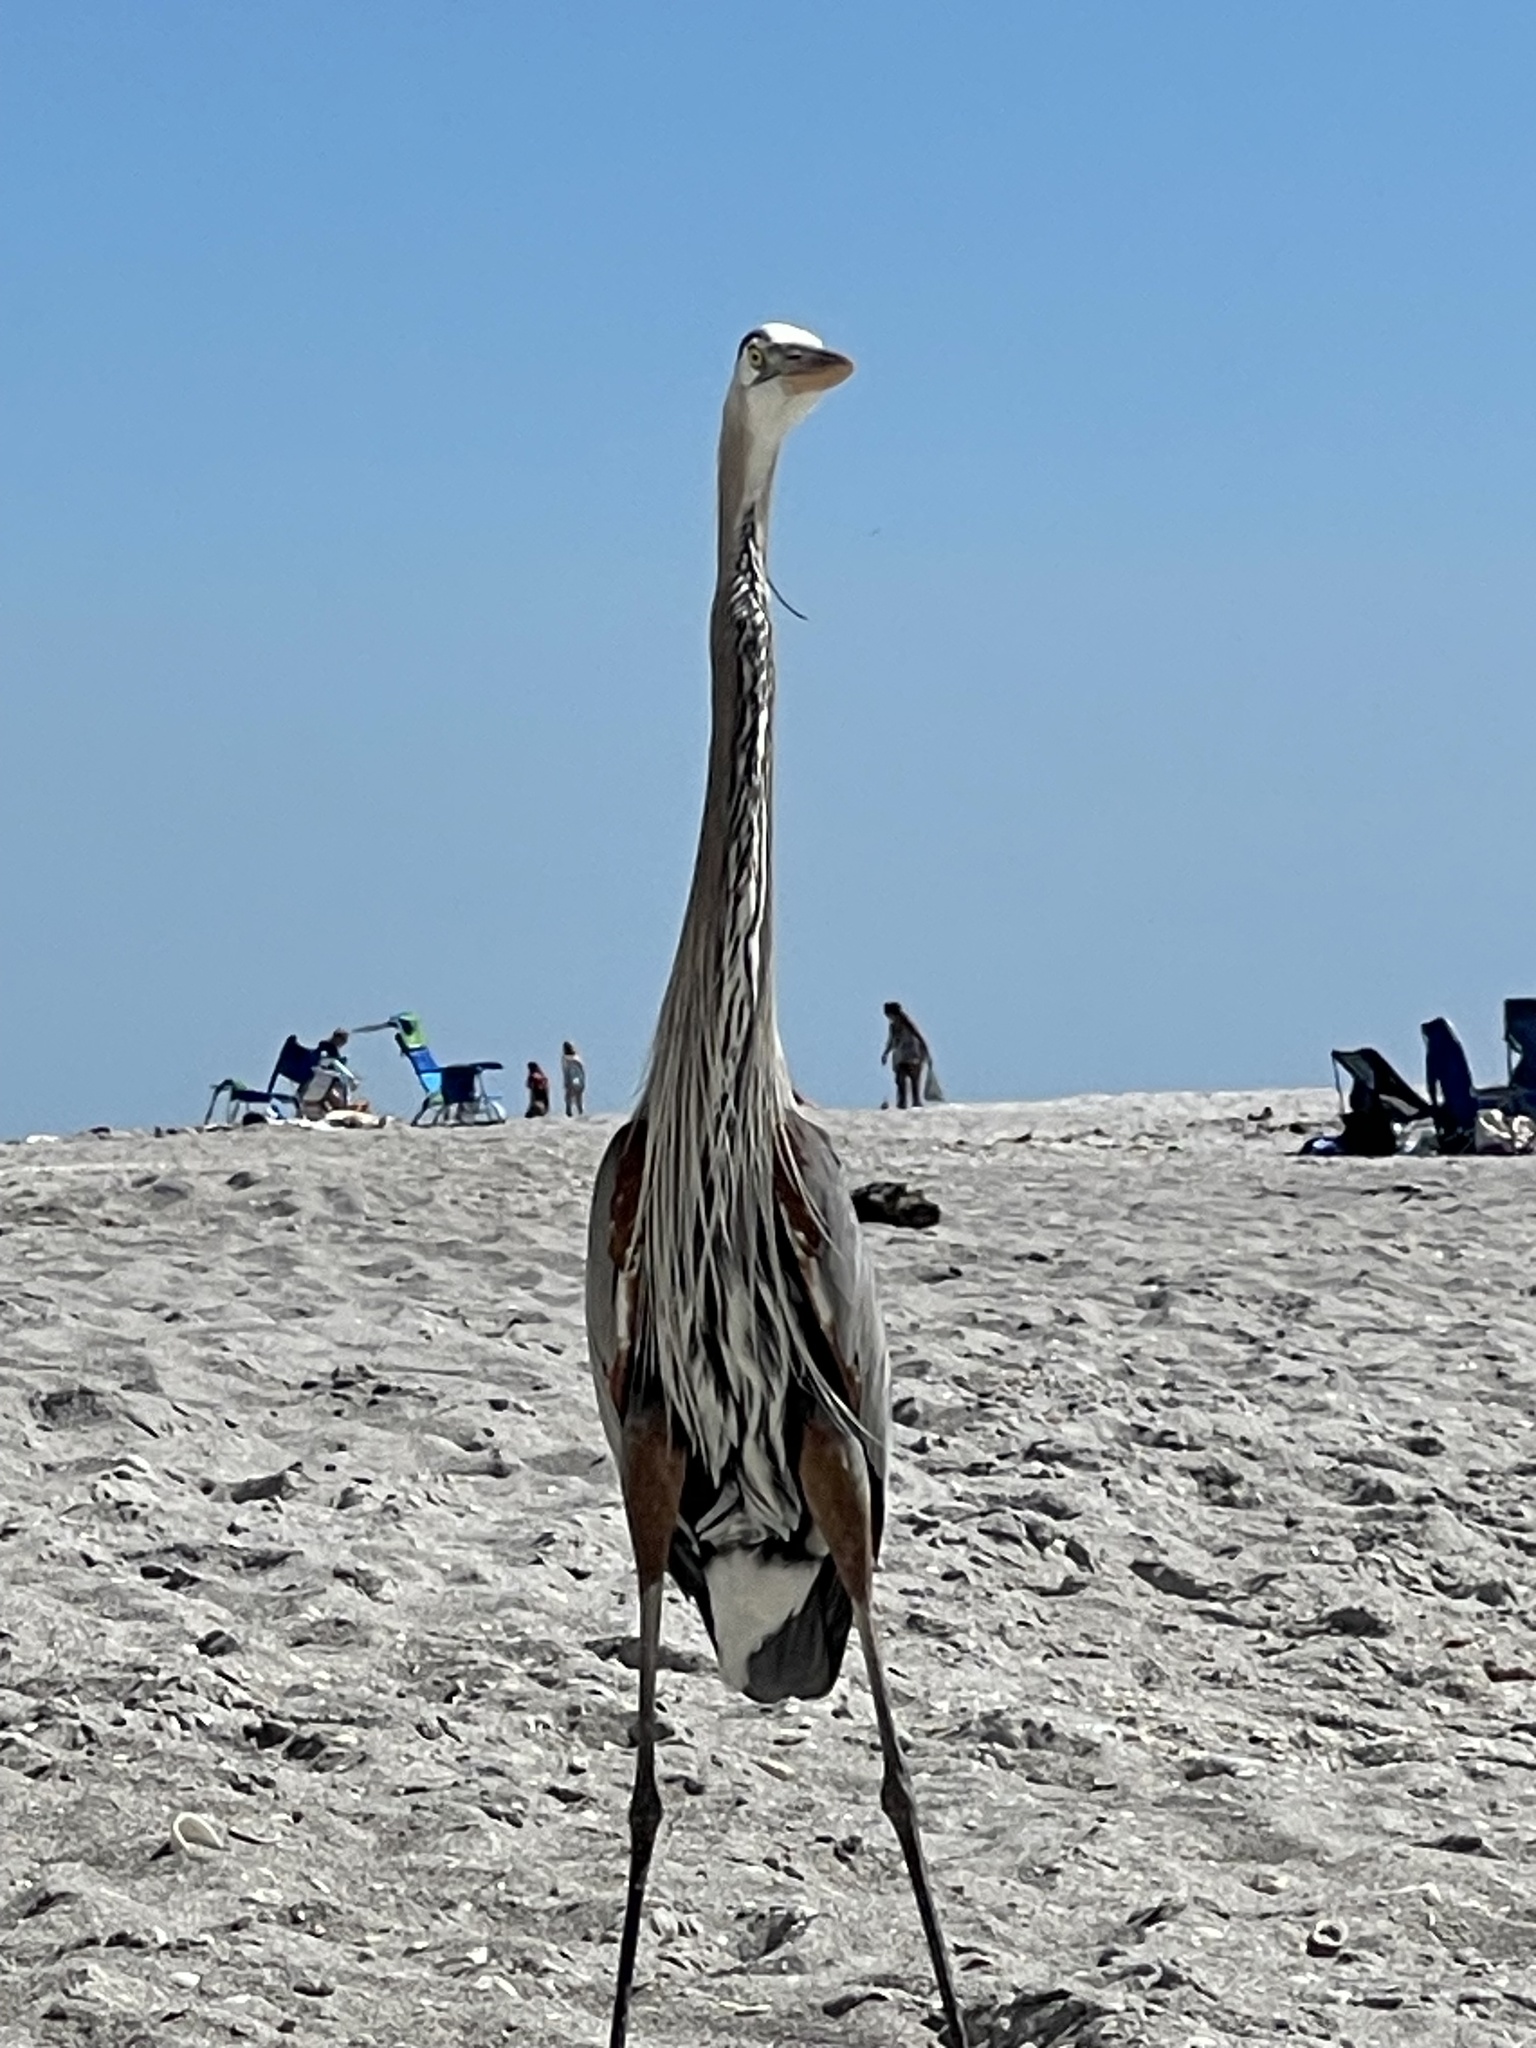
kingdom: Animalia
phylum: Chordata
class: Aves
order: Pelecaniformes
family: Ardeidae
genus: Ardea
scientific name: Ardea herodias
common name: Great blue heron
